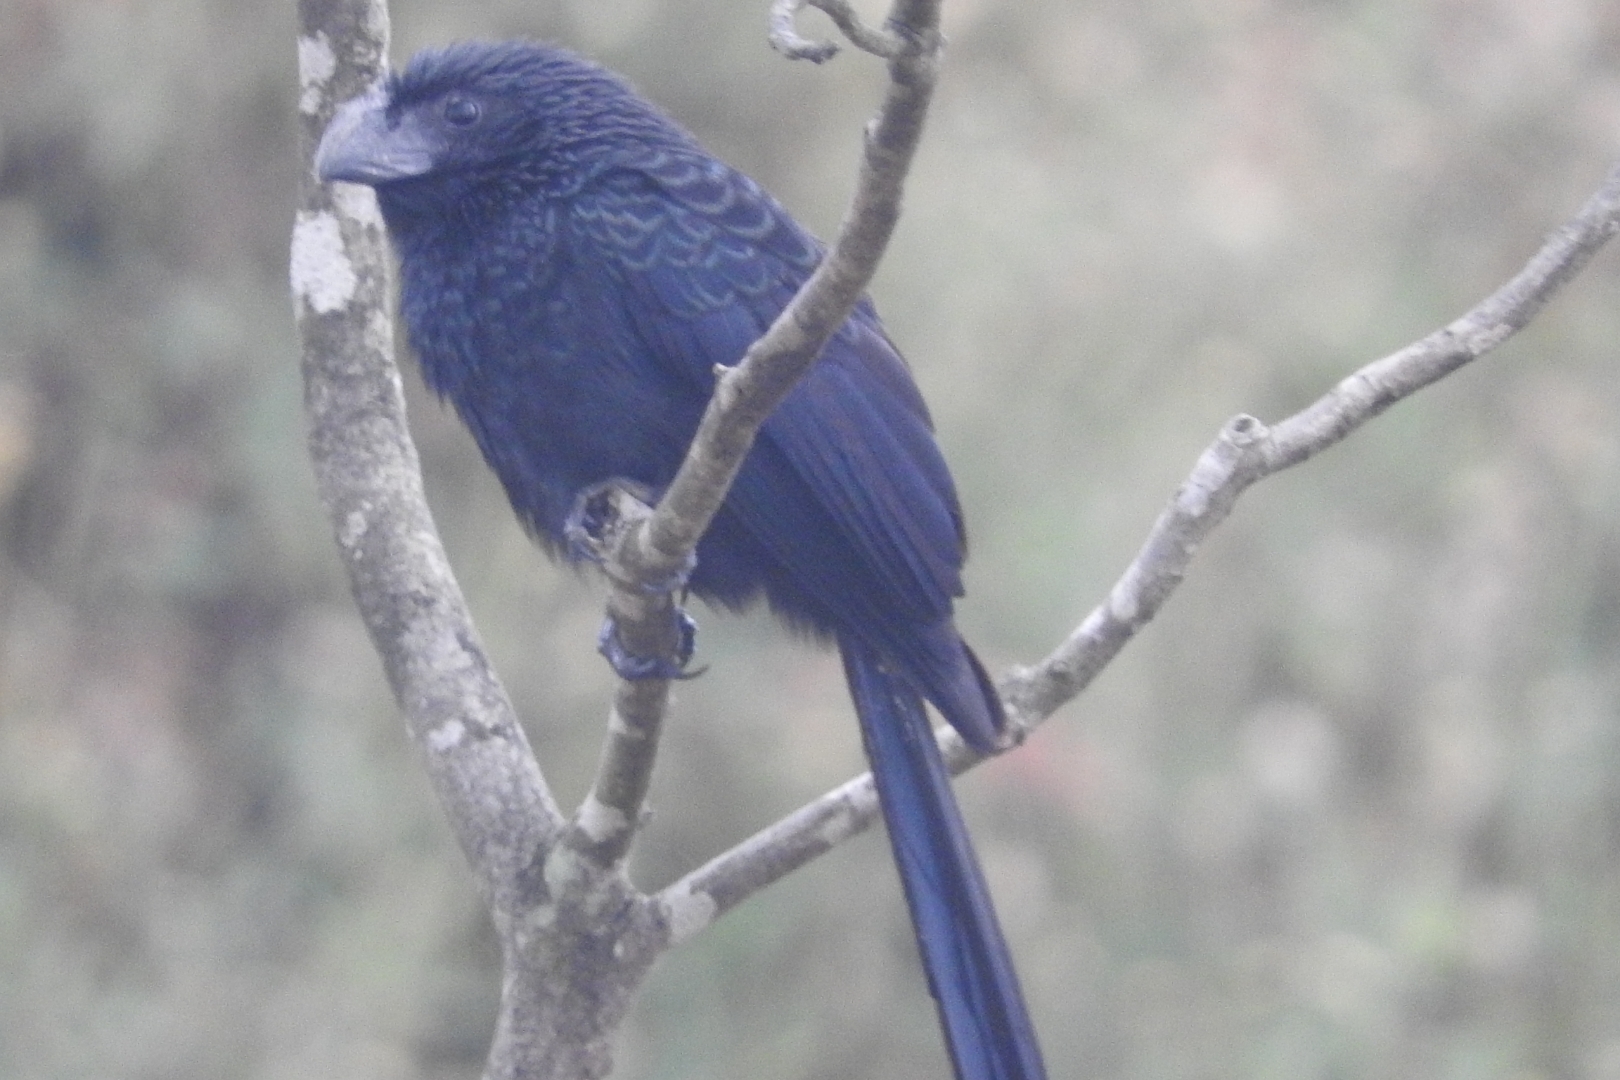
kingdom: Animalia
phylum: Chordata
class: Aves
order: Cuculiformes
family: Cuculidae
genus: Crotophaga
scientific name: Crotophaga sulcirostris
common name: Groove-billed ani
